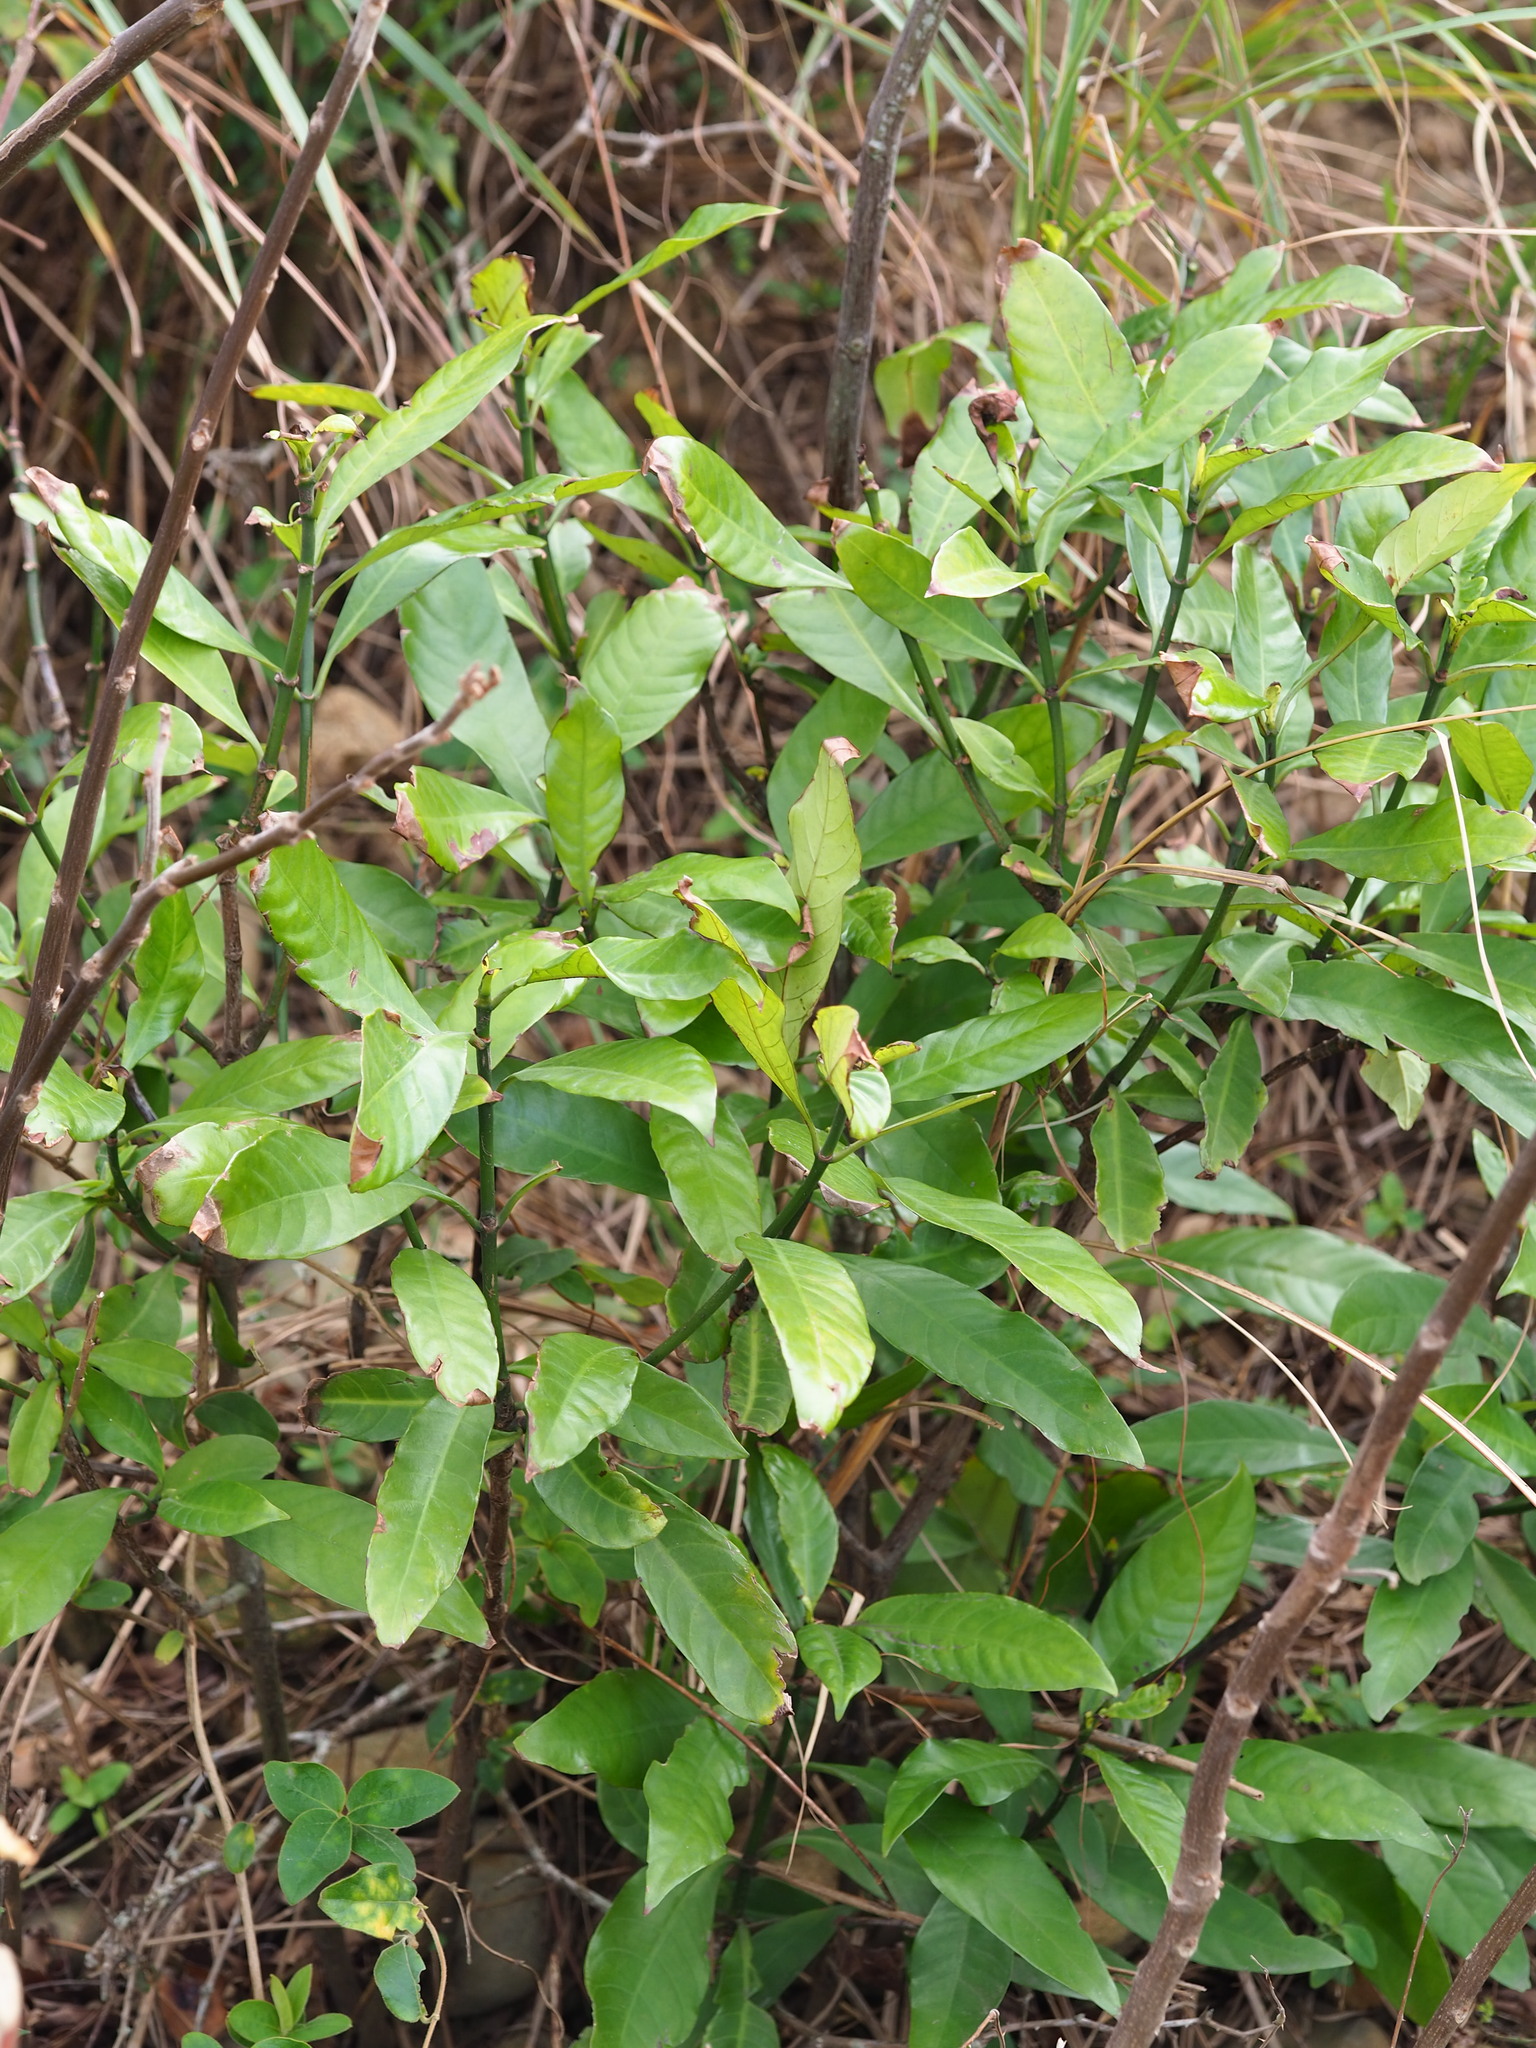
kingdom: Plantae
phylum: Tracheophyta
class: Magnoliopsida
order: Gentianales
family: Rubiaceae
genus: Psychotria
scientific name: Psychotria asiatica
